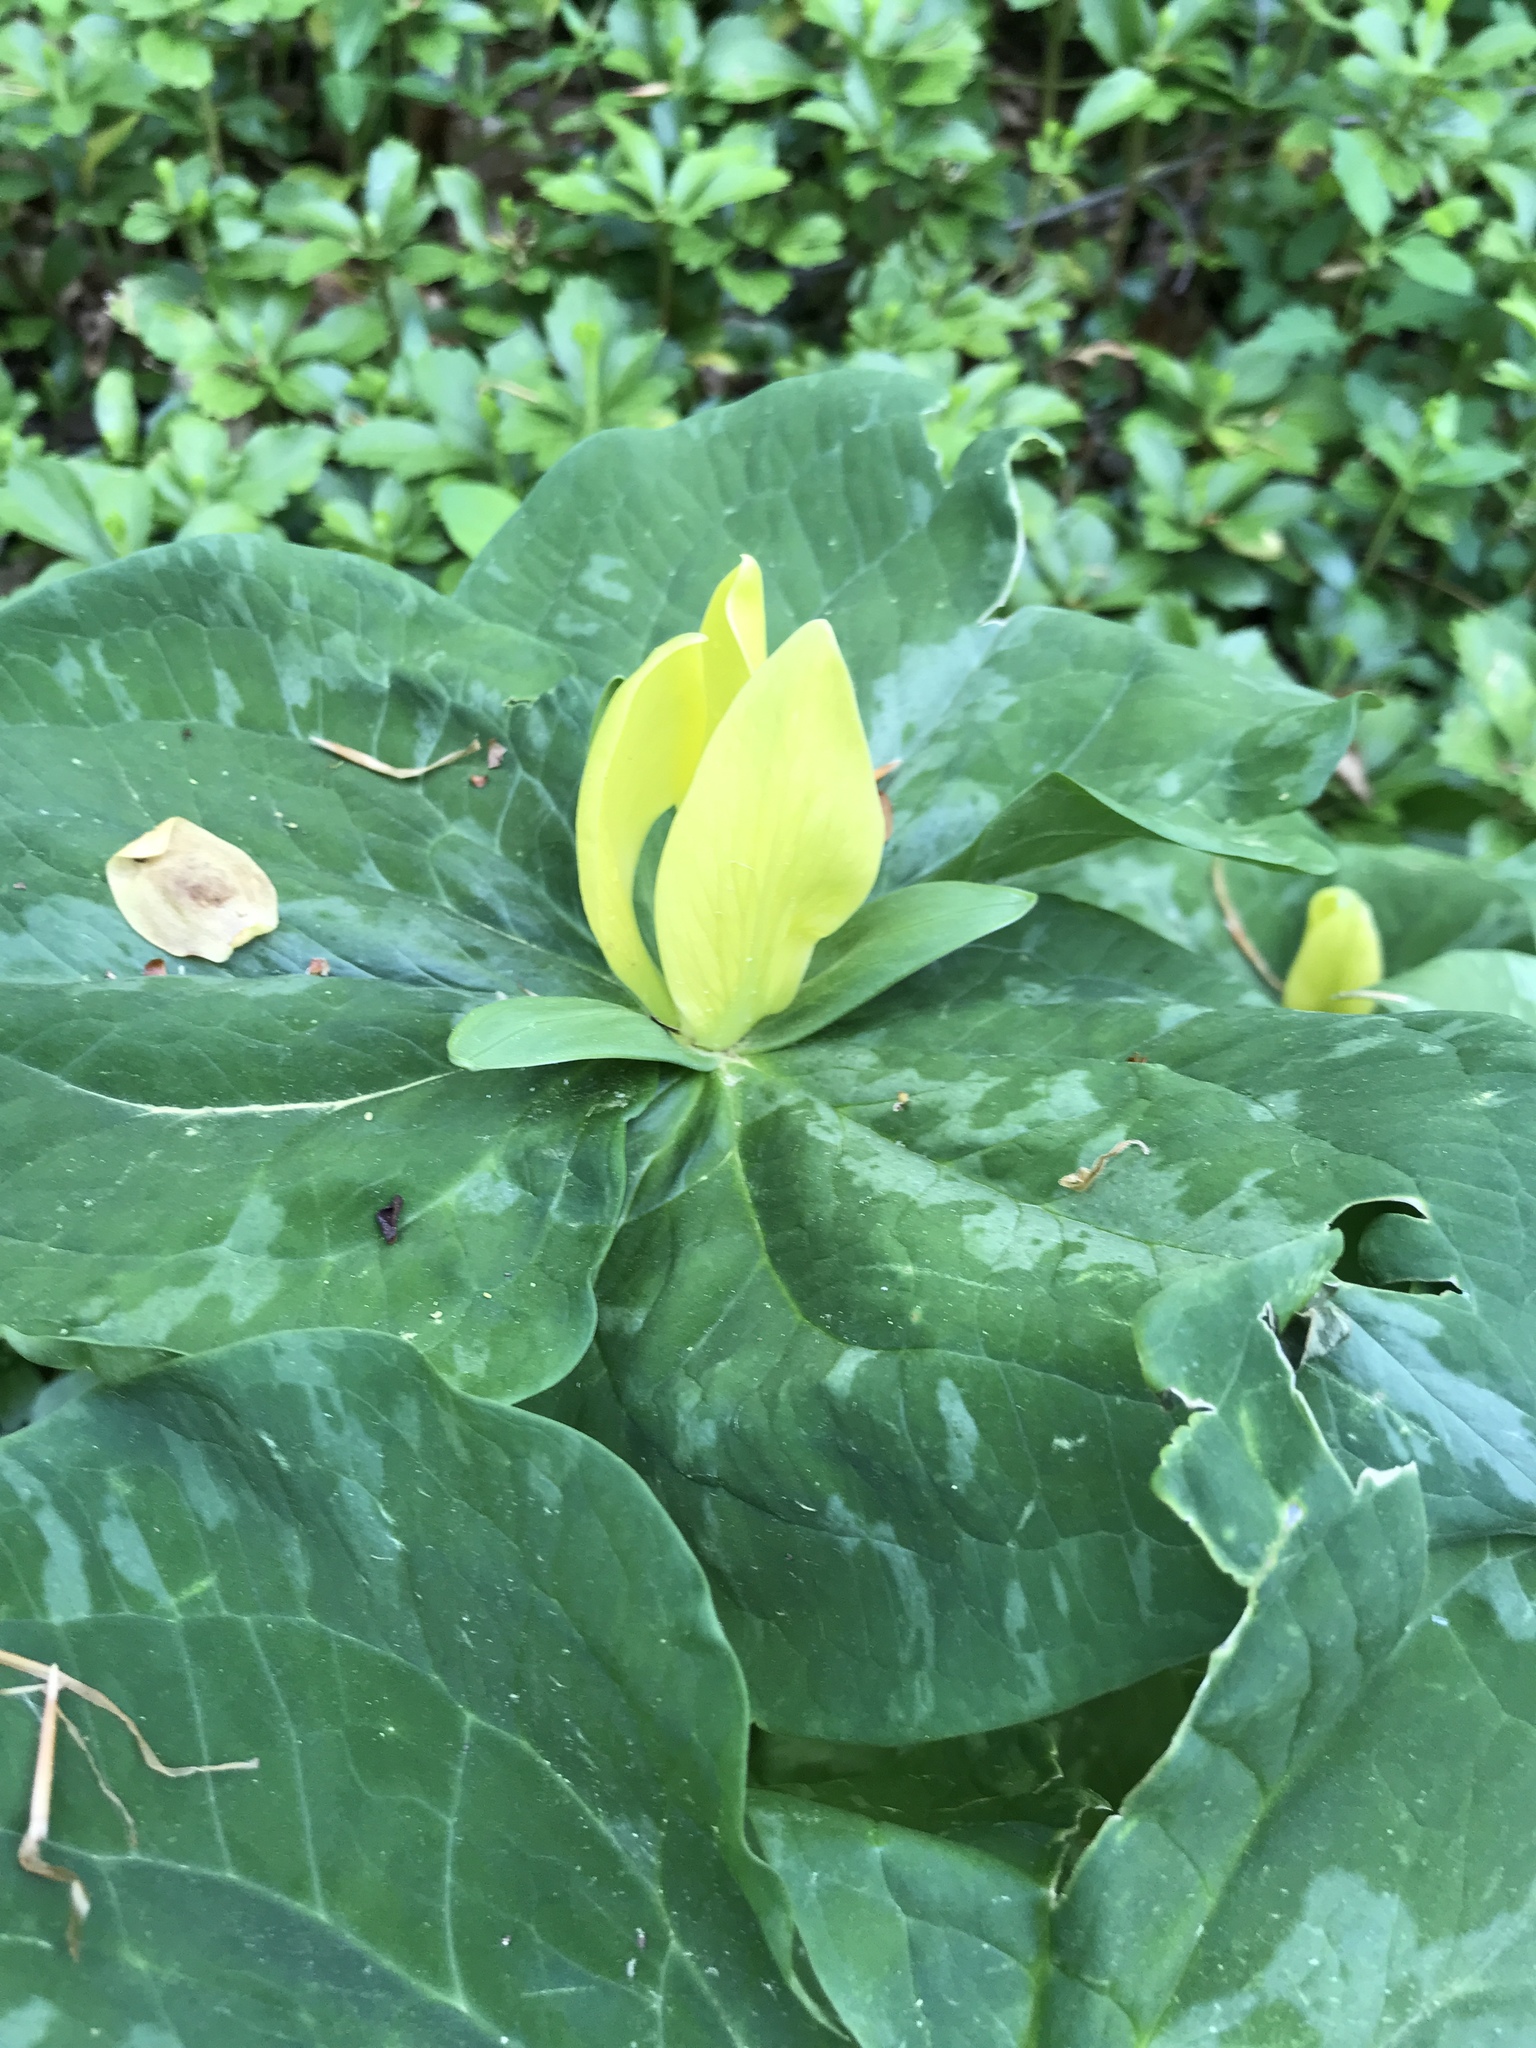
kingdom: Plantae
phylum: Tracheophyta
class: Liliopsida
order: Liliales
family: Melanthiaceae
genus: Trillium
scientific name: Trillium luteum
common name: Wax trillium
